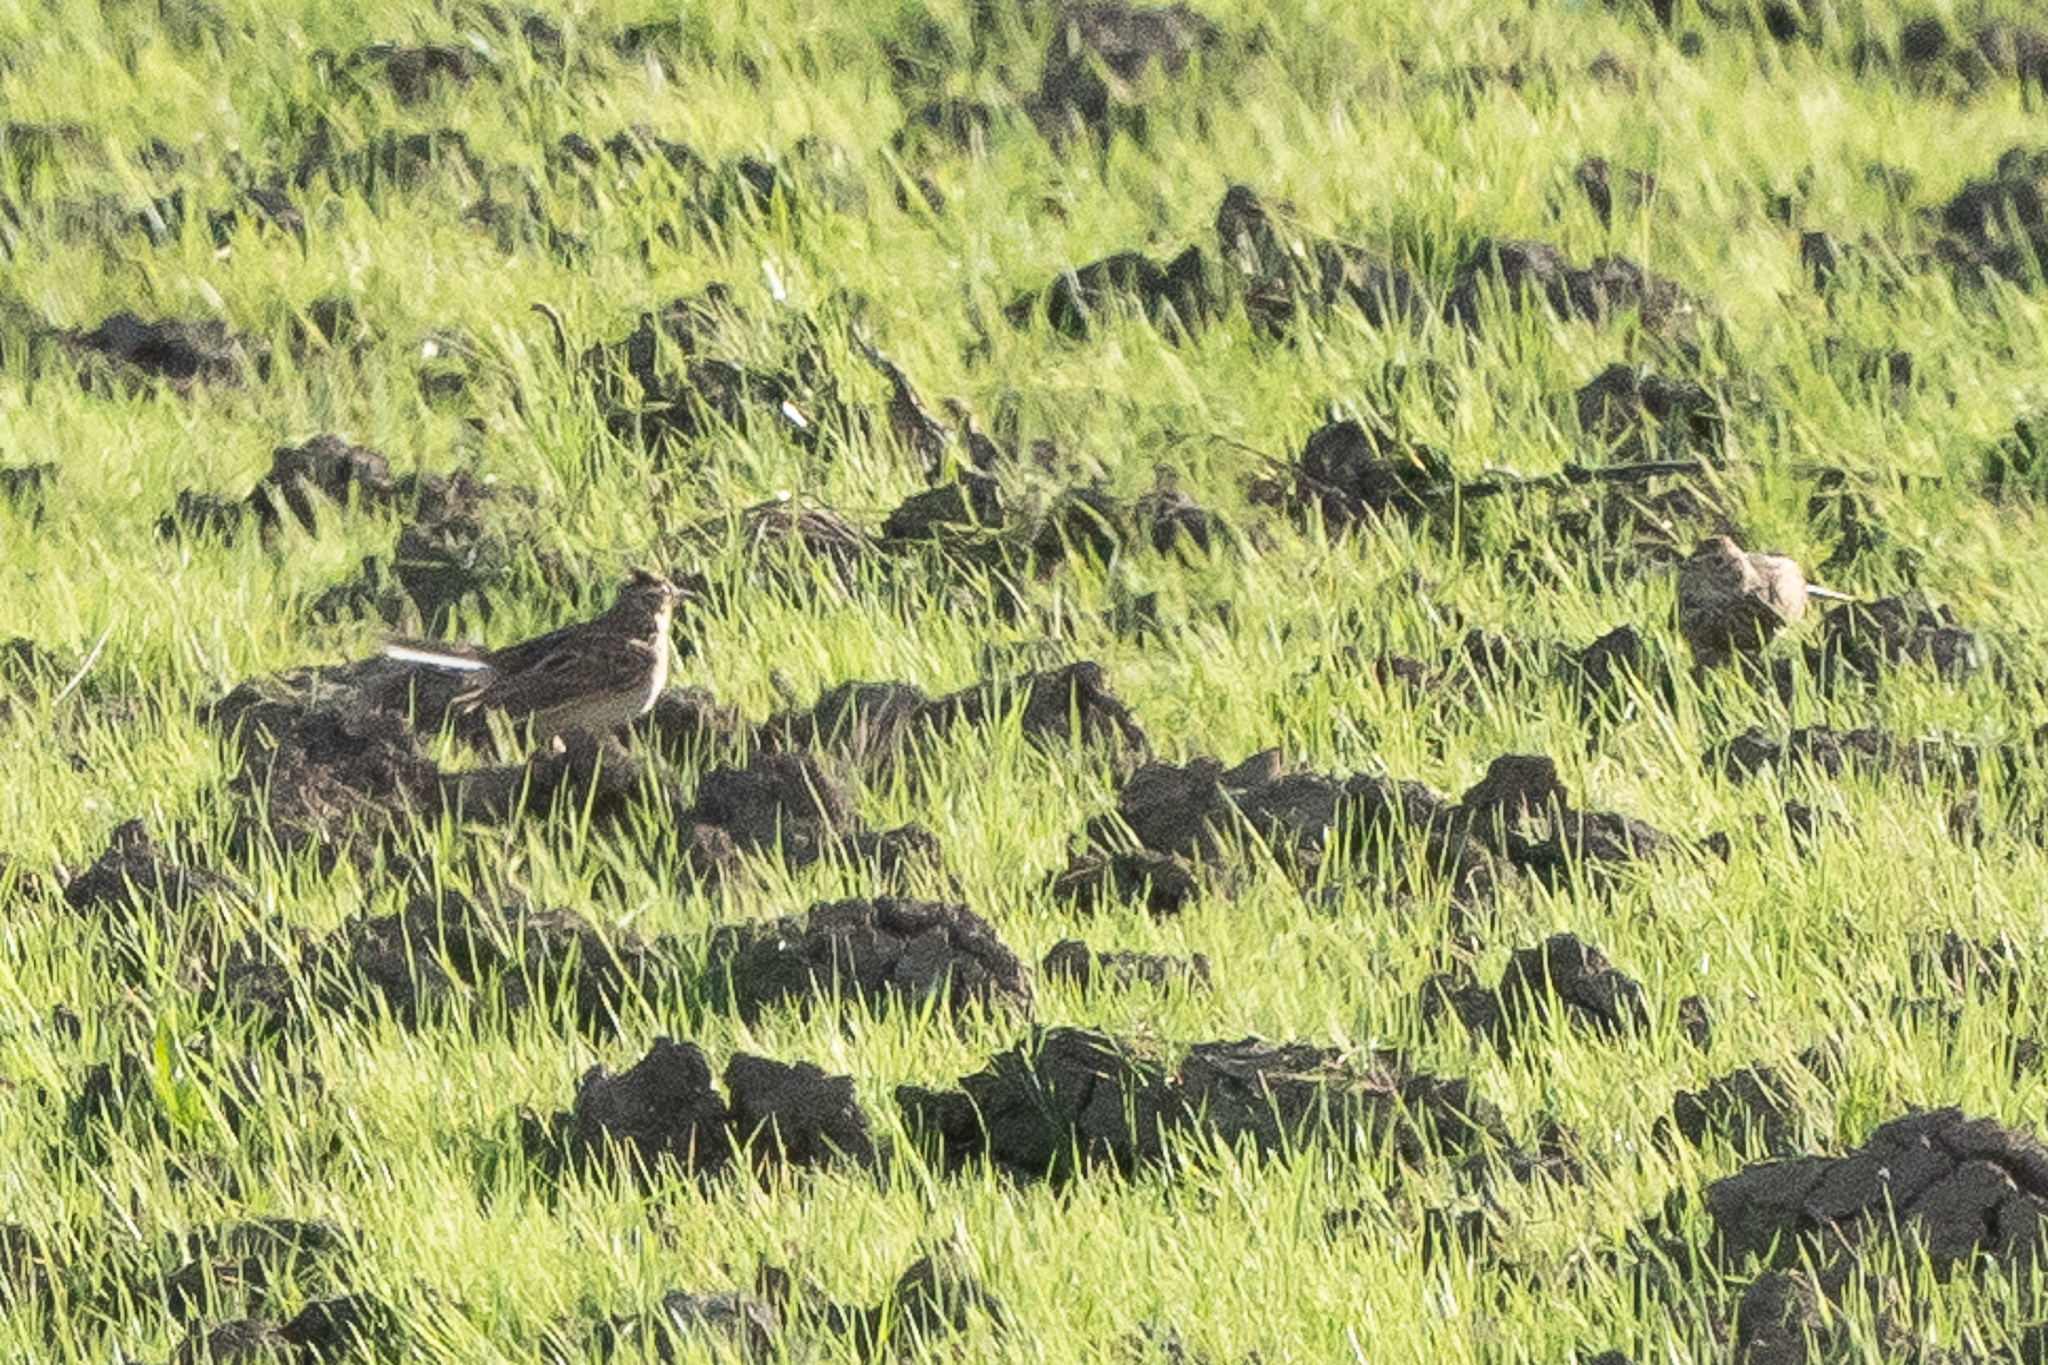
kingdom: Animalia
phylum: Chordata
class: Aves
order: Passeriformes
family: Alaudidae
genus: Alauda
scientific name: Alauda arvensis
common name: Eurasian skylark
